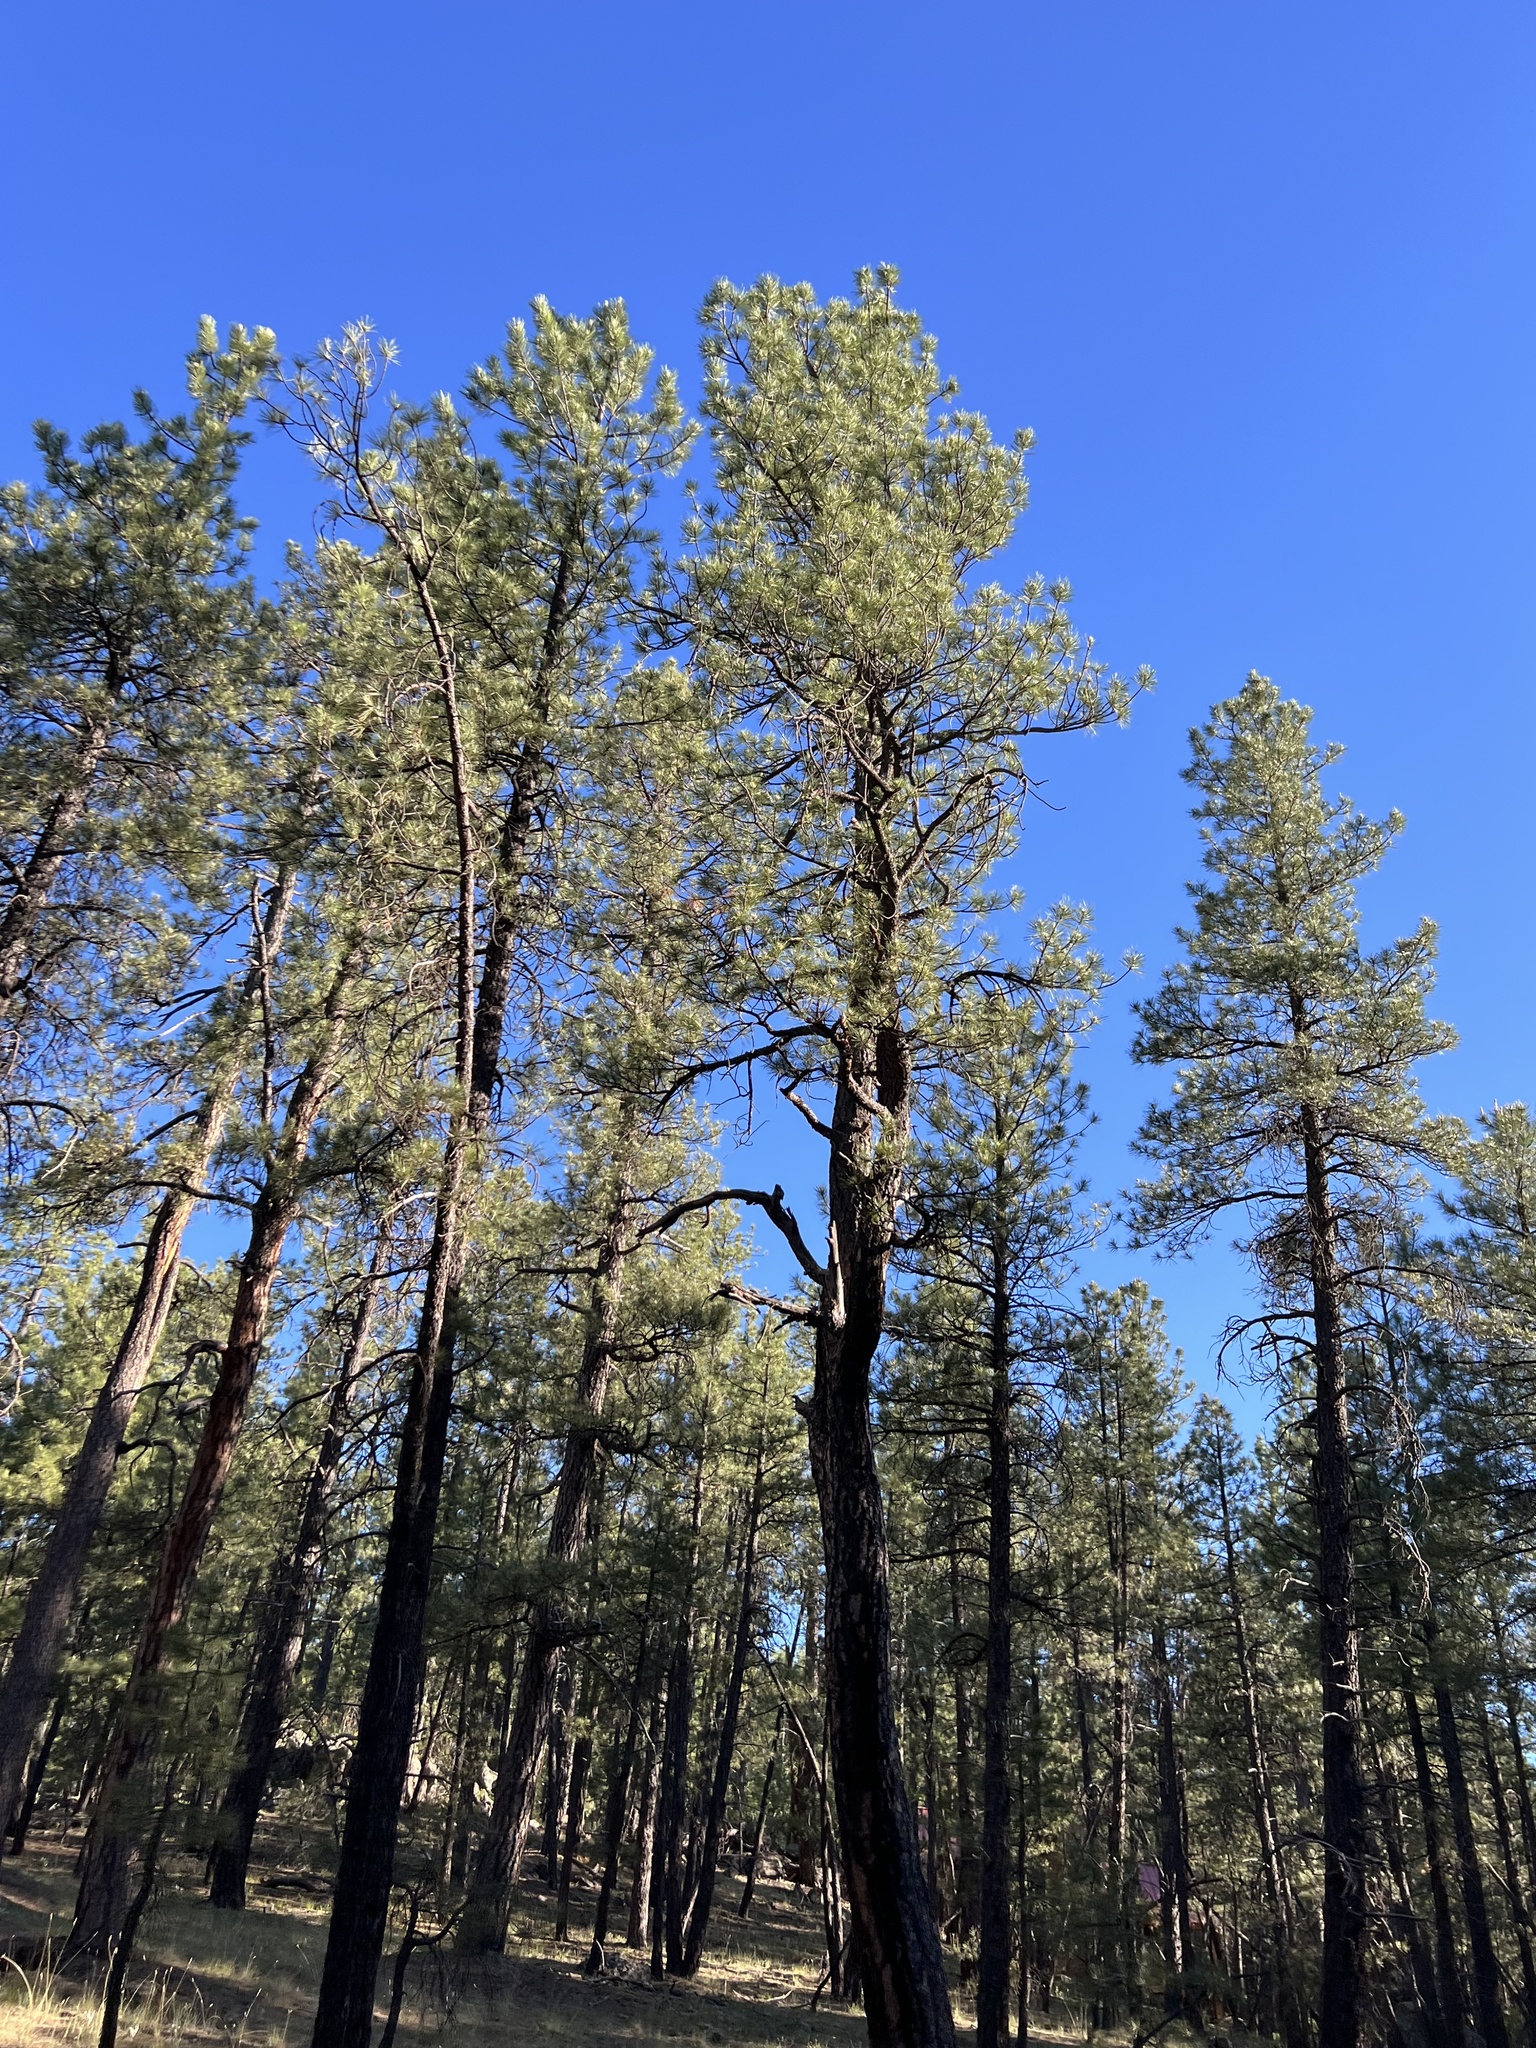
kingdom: Plantae
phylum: Tracheophyta
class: Pinopsida
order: Pinales
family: Pinaceae
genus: Pinus
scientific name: Pinus ponderosa
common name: Western yellow-pine
